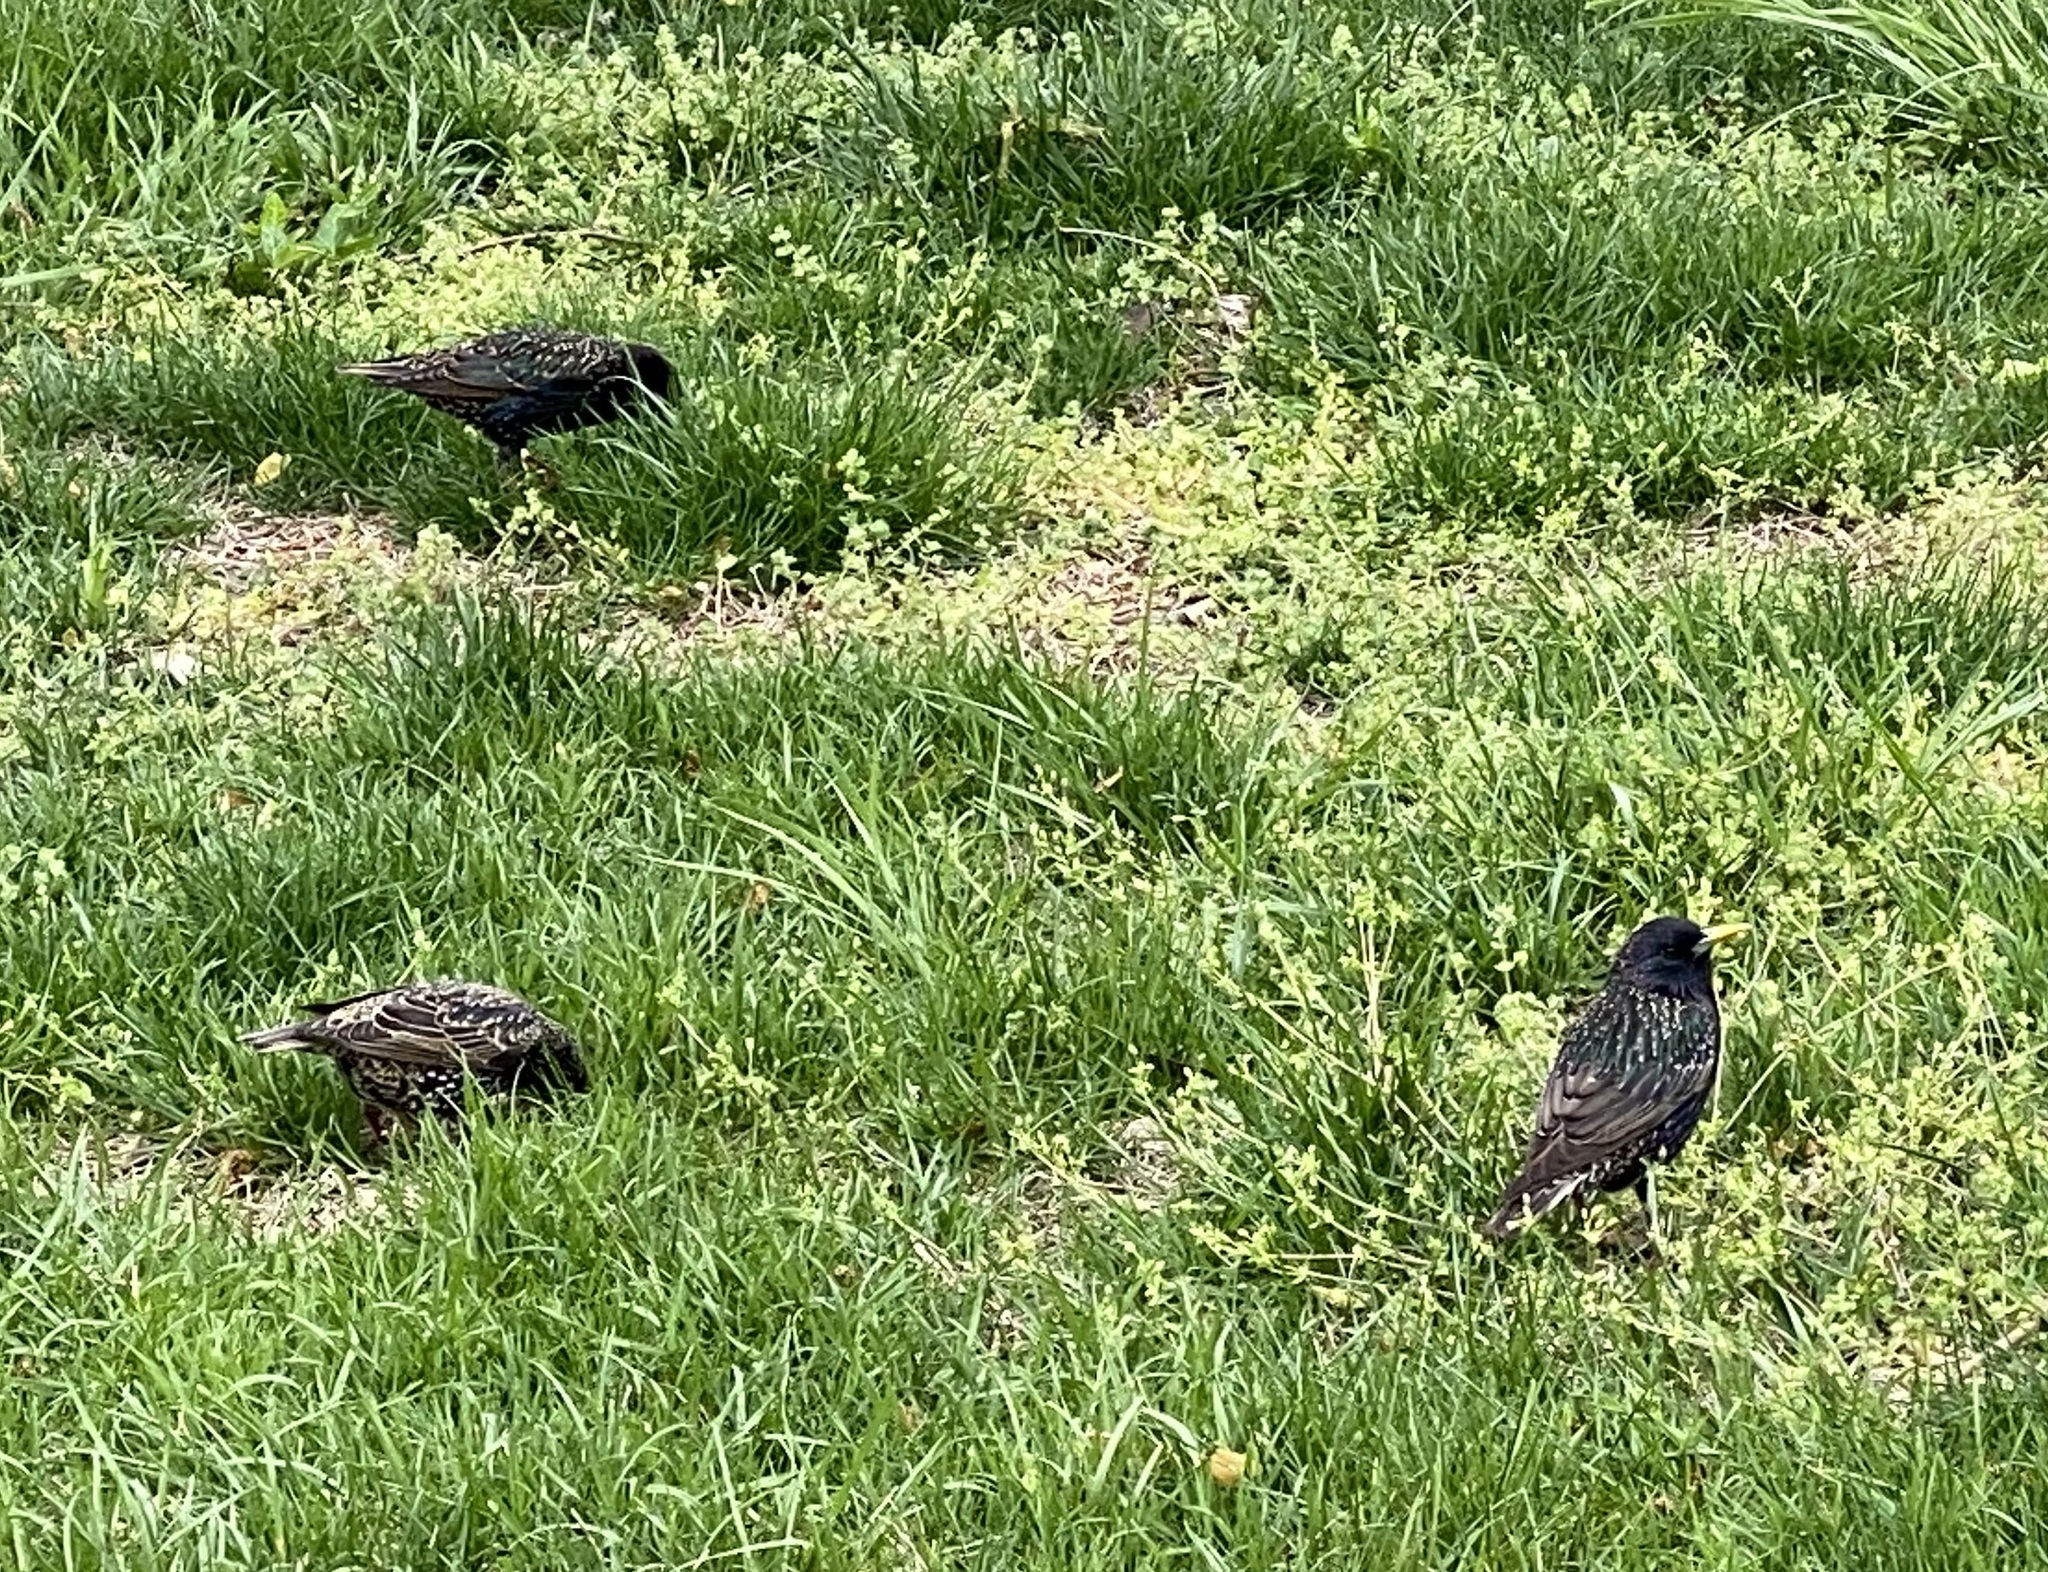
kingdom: Animalia
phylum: Chordata
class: Aves
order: Passeriformes
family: Sturnidae
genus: Sturnus
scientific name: Sturnus vulgaris
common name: Common starling
